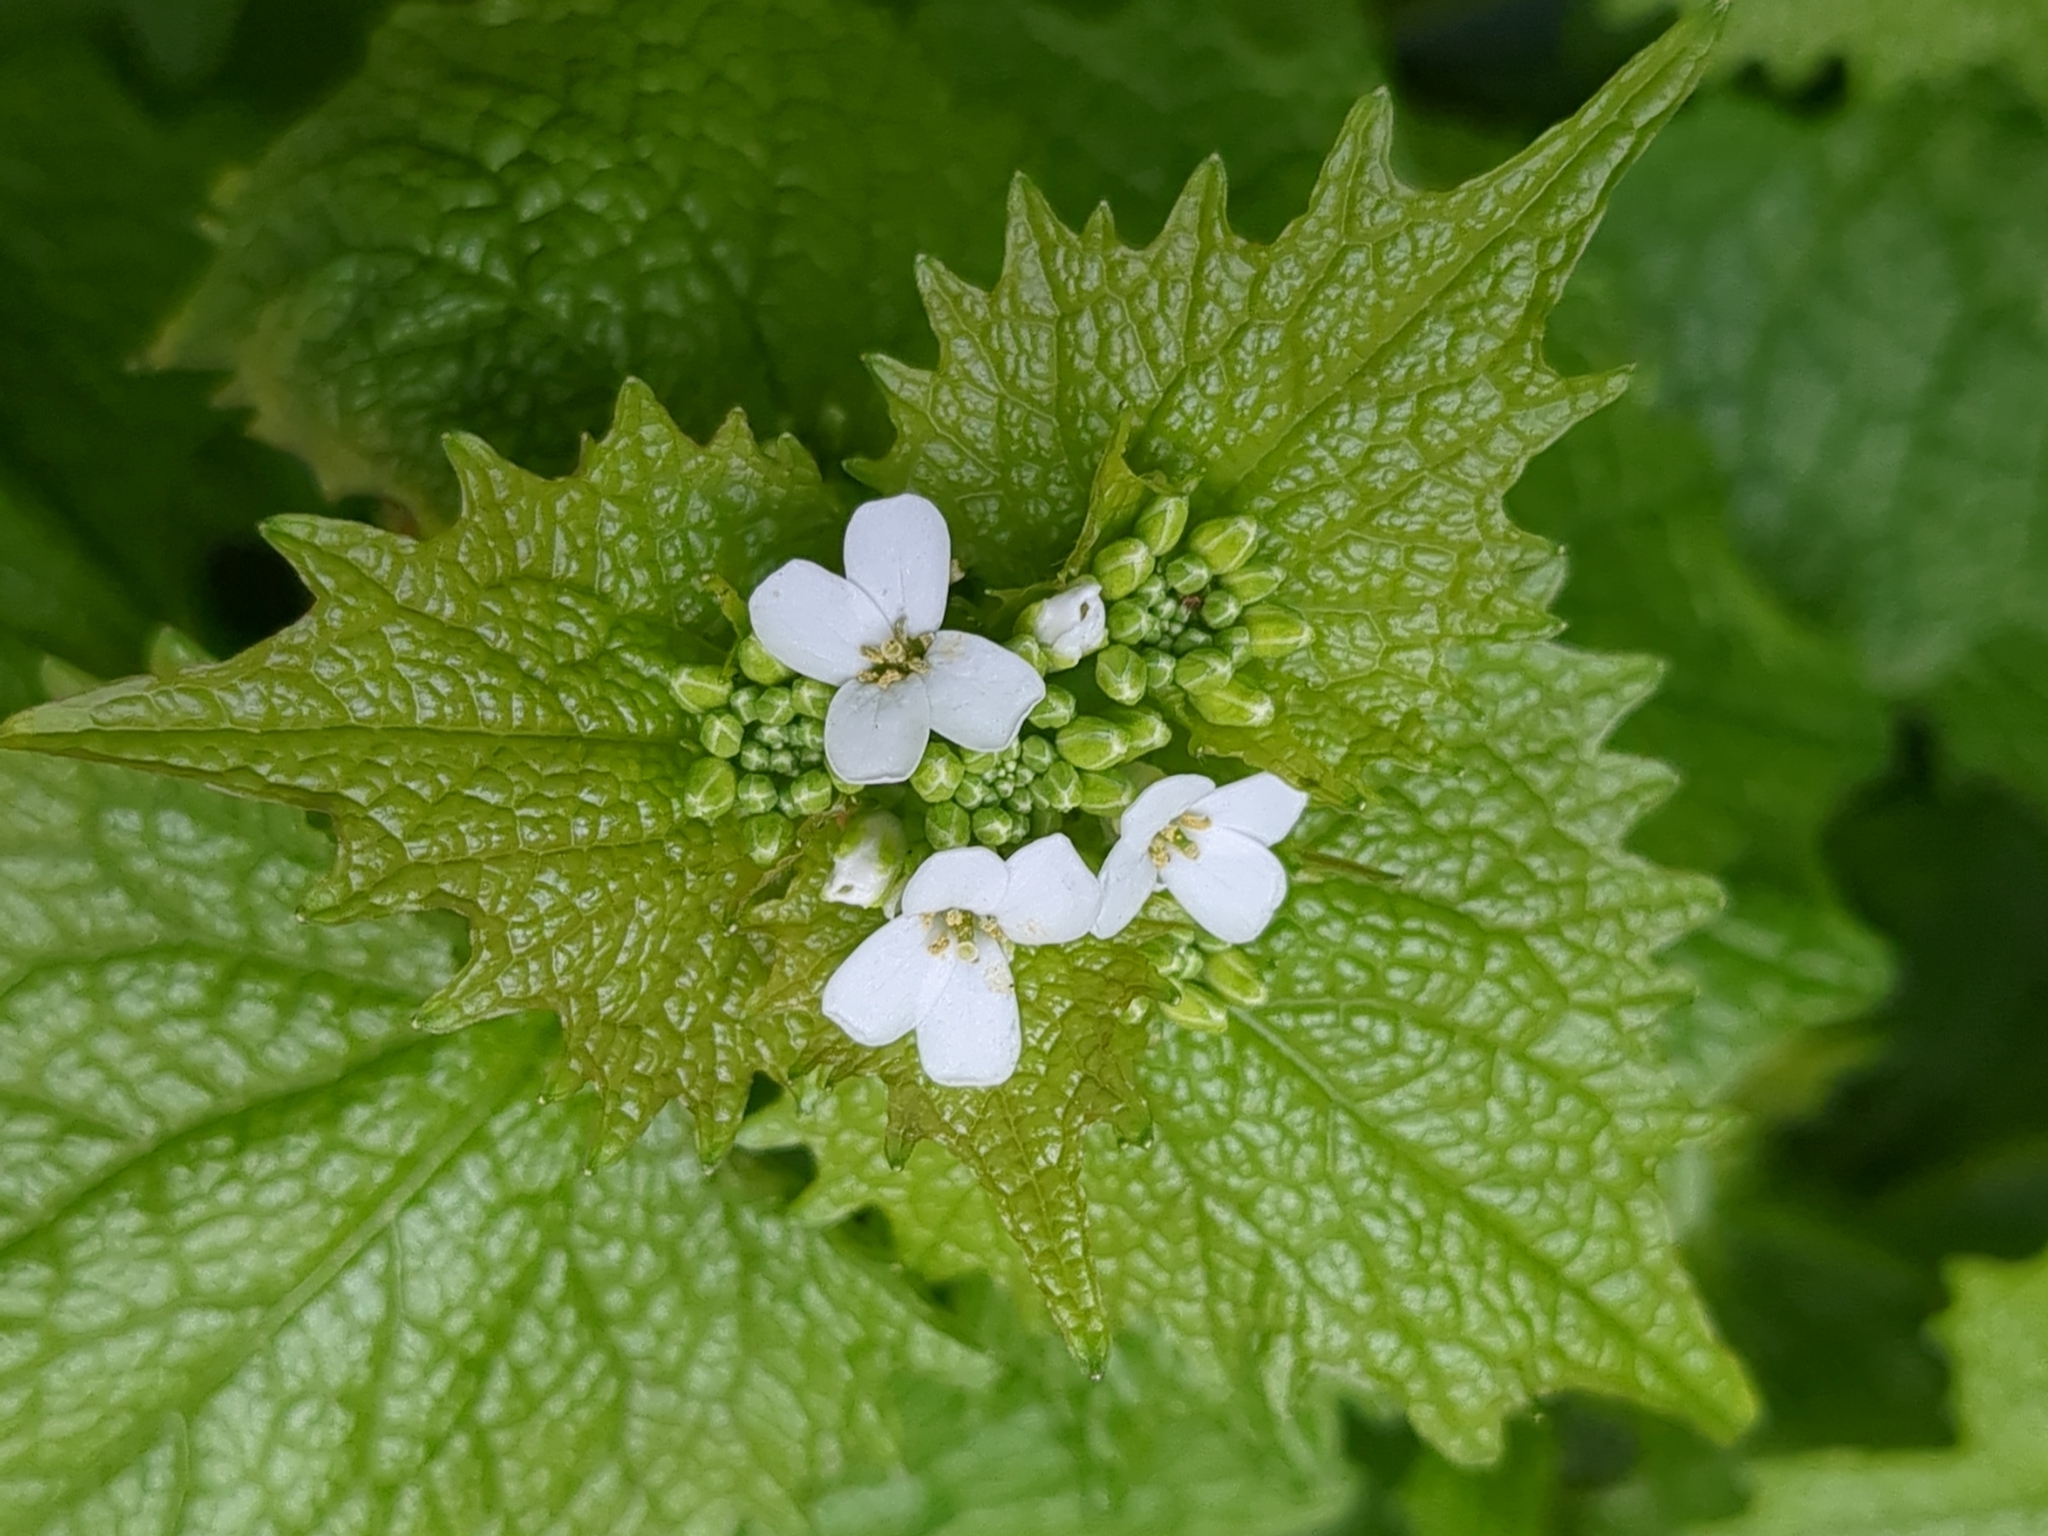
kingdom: Plantae
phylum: Tracheophyta
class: Magnoliopsida
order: Brassicales
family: Brassicaceae
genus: Alliaria
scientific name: Alliaria petiolata
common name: Garlic mustard
